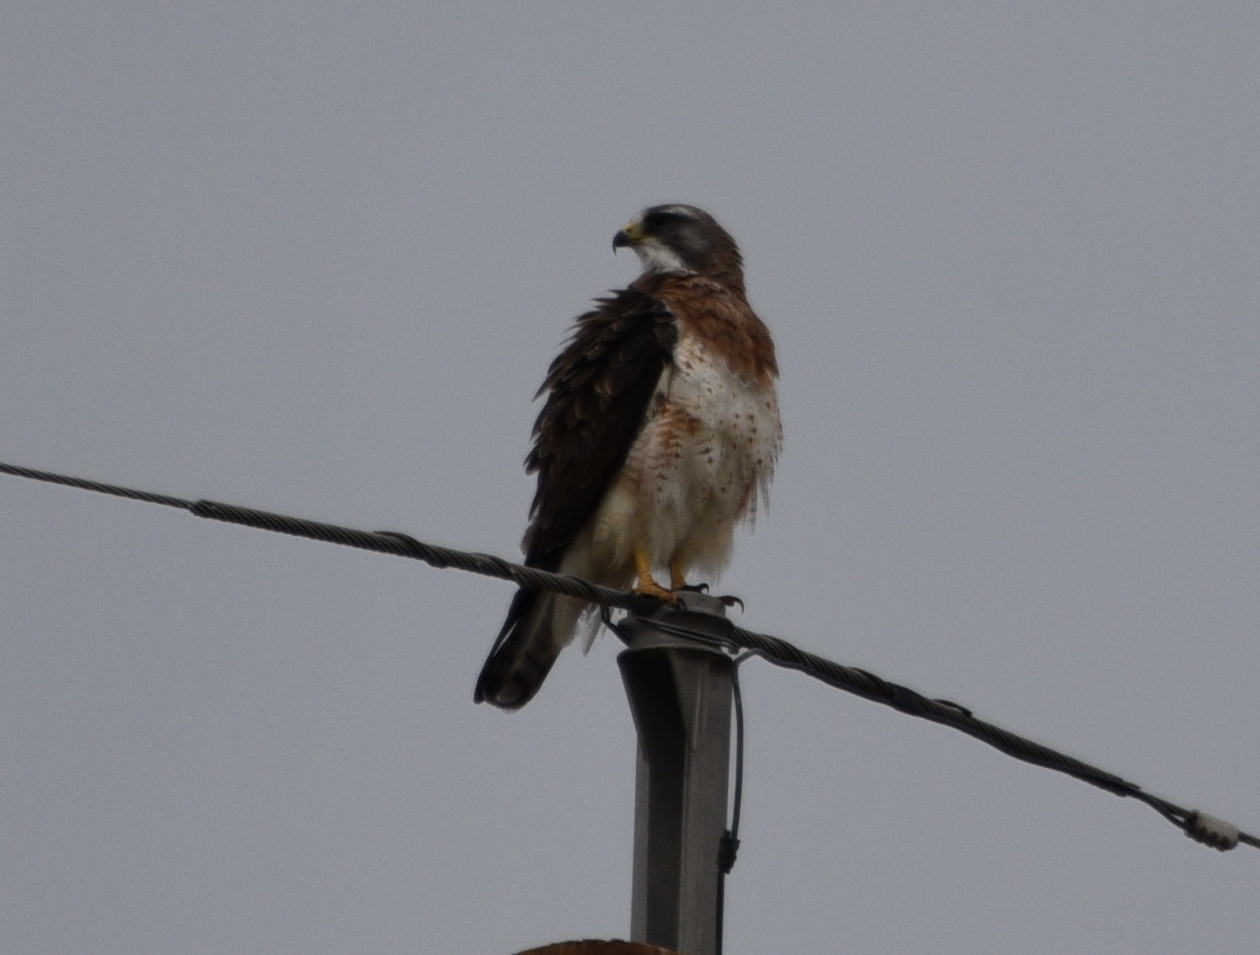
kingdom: Animalia
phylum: Chordata
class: Aves
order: Accipitriformes
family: Accipitridae
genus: Buteo
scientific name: Buteo swainsoni
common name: Swainson's hawk
